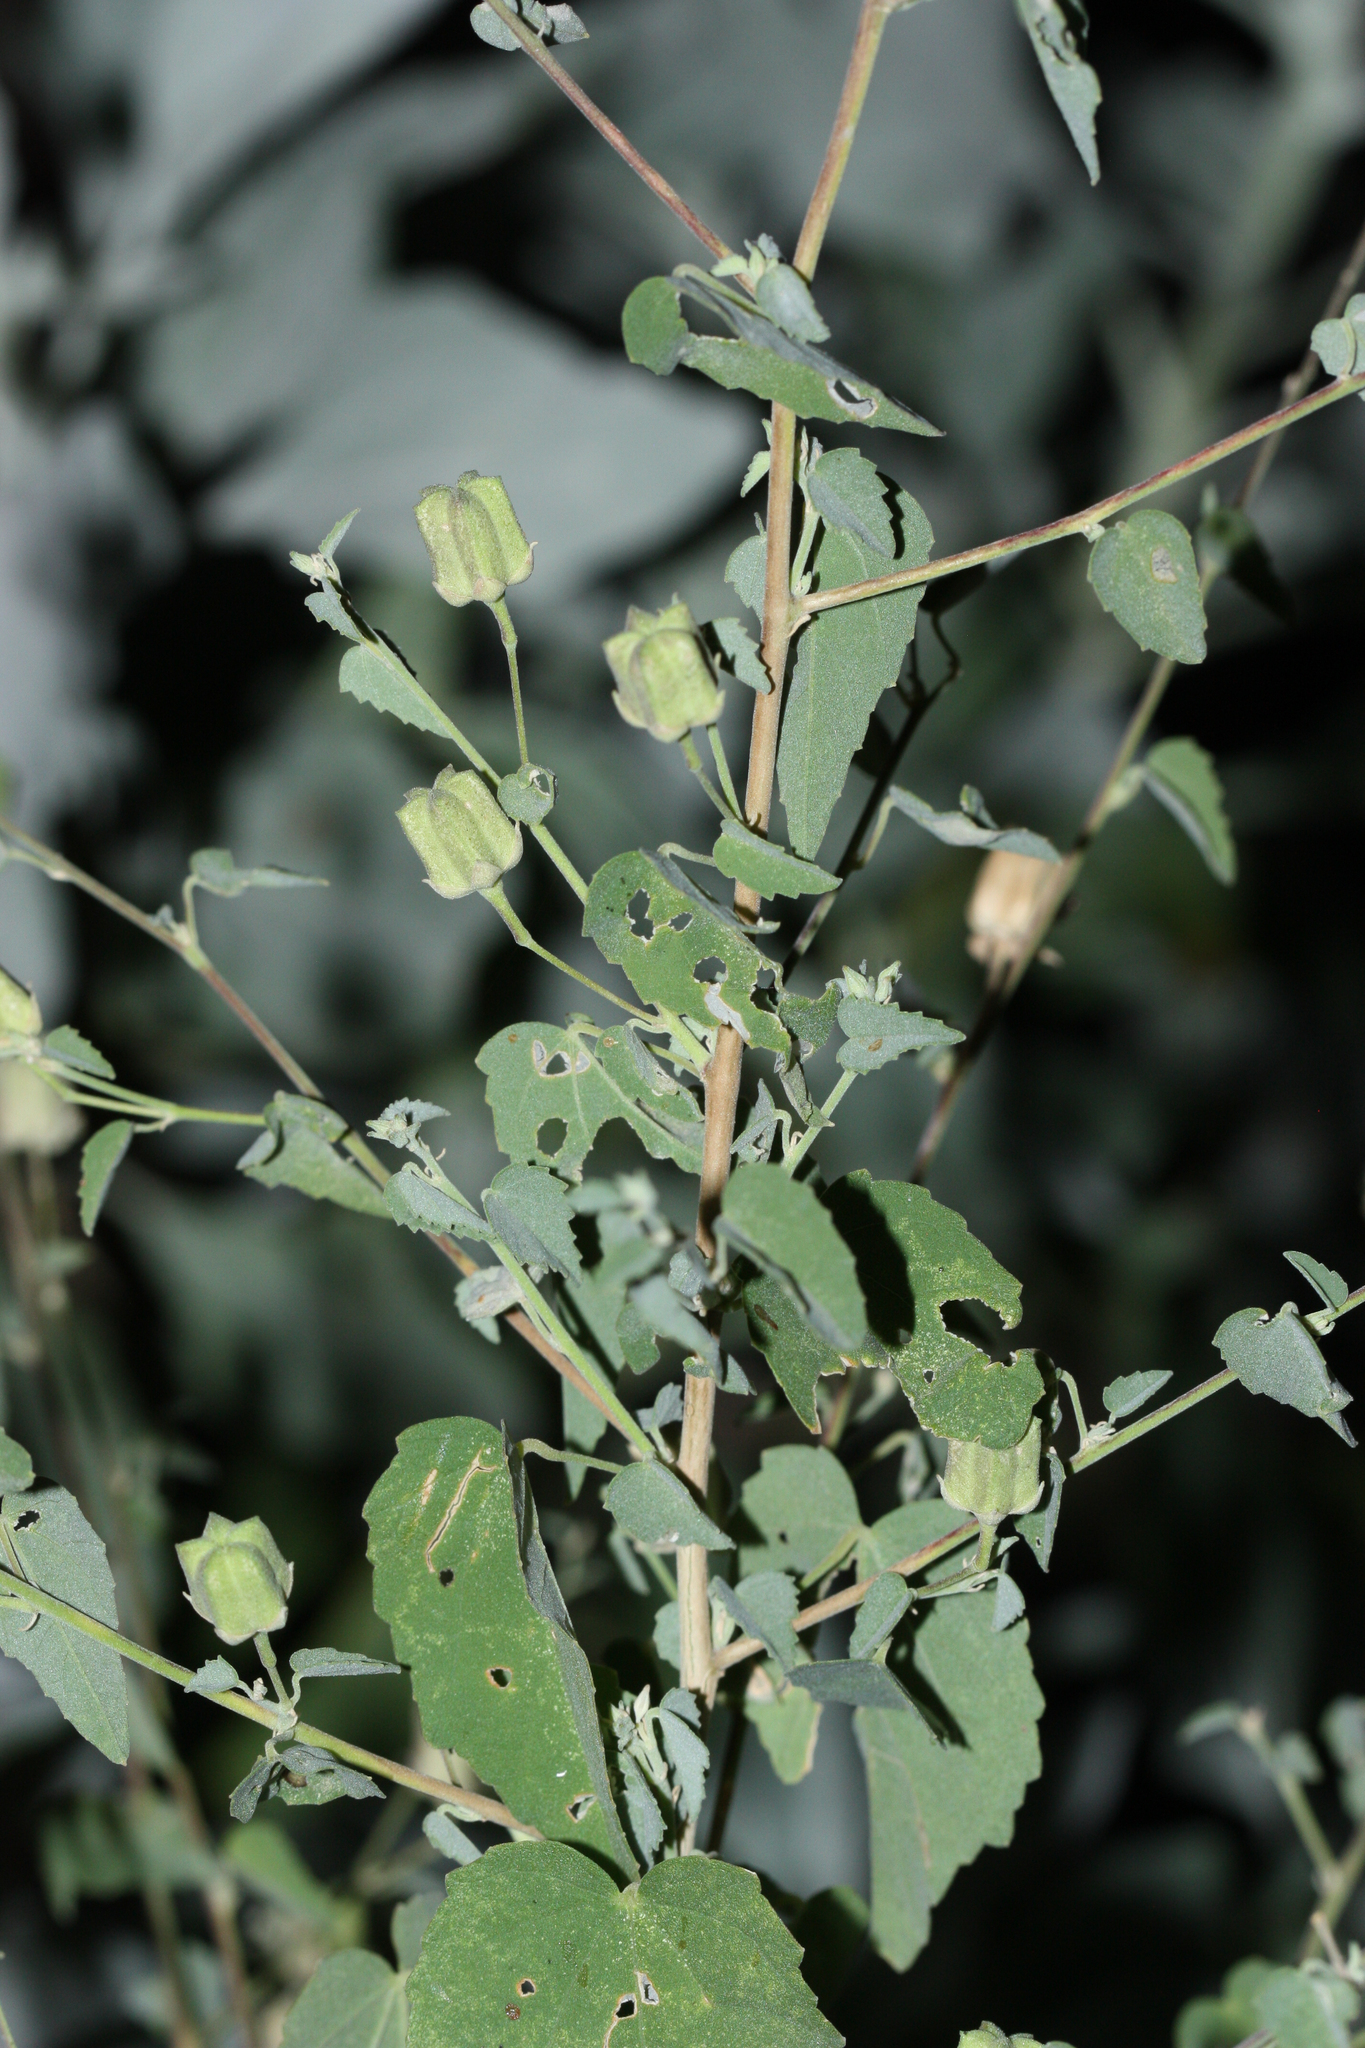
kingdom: Plantae
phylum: Tracheophyta
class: Magnoliopsida
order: Malvales
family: Malvaceae
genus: Abutilon
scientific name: Abutilon incanum
